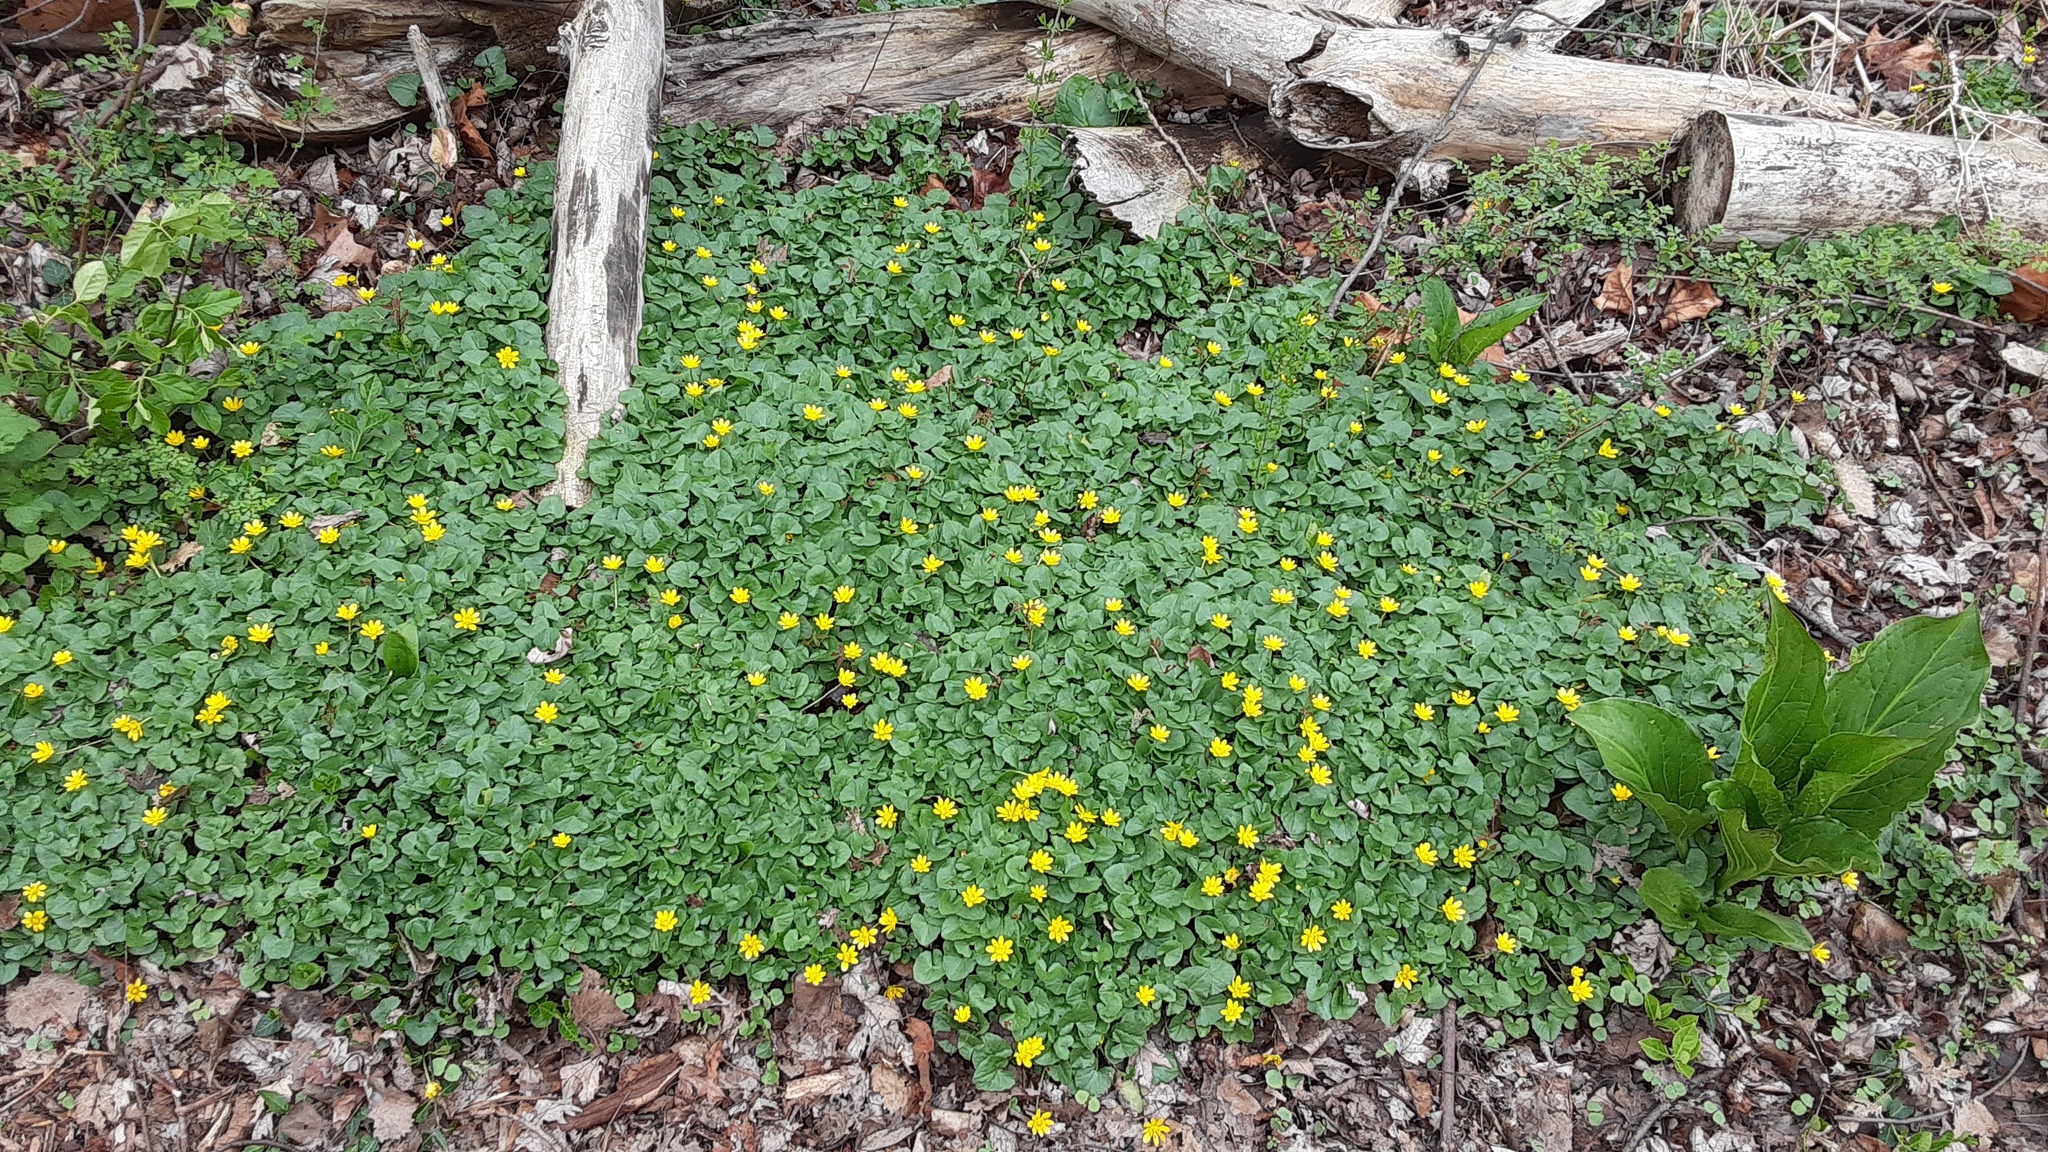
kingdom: Plantae
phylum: Tracheophyta
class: Magnoliopsida
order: Ranunculales
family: Ranunculaceae
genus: Ficaria
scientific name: Ficaria verna
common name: Lesser celandine
